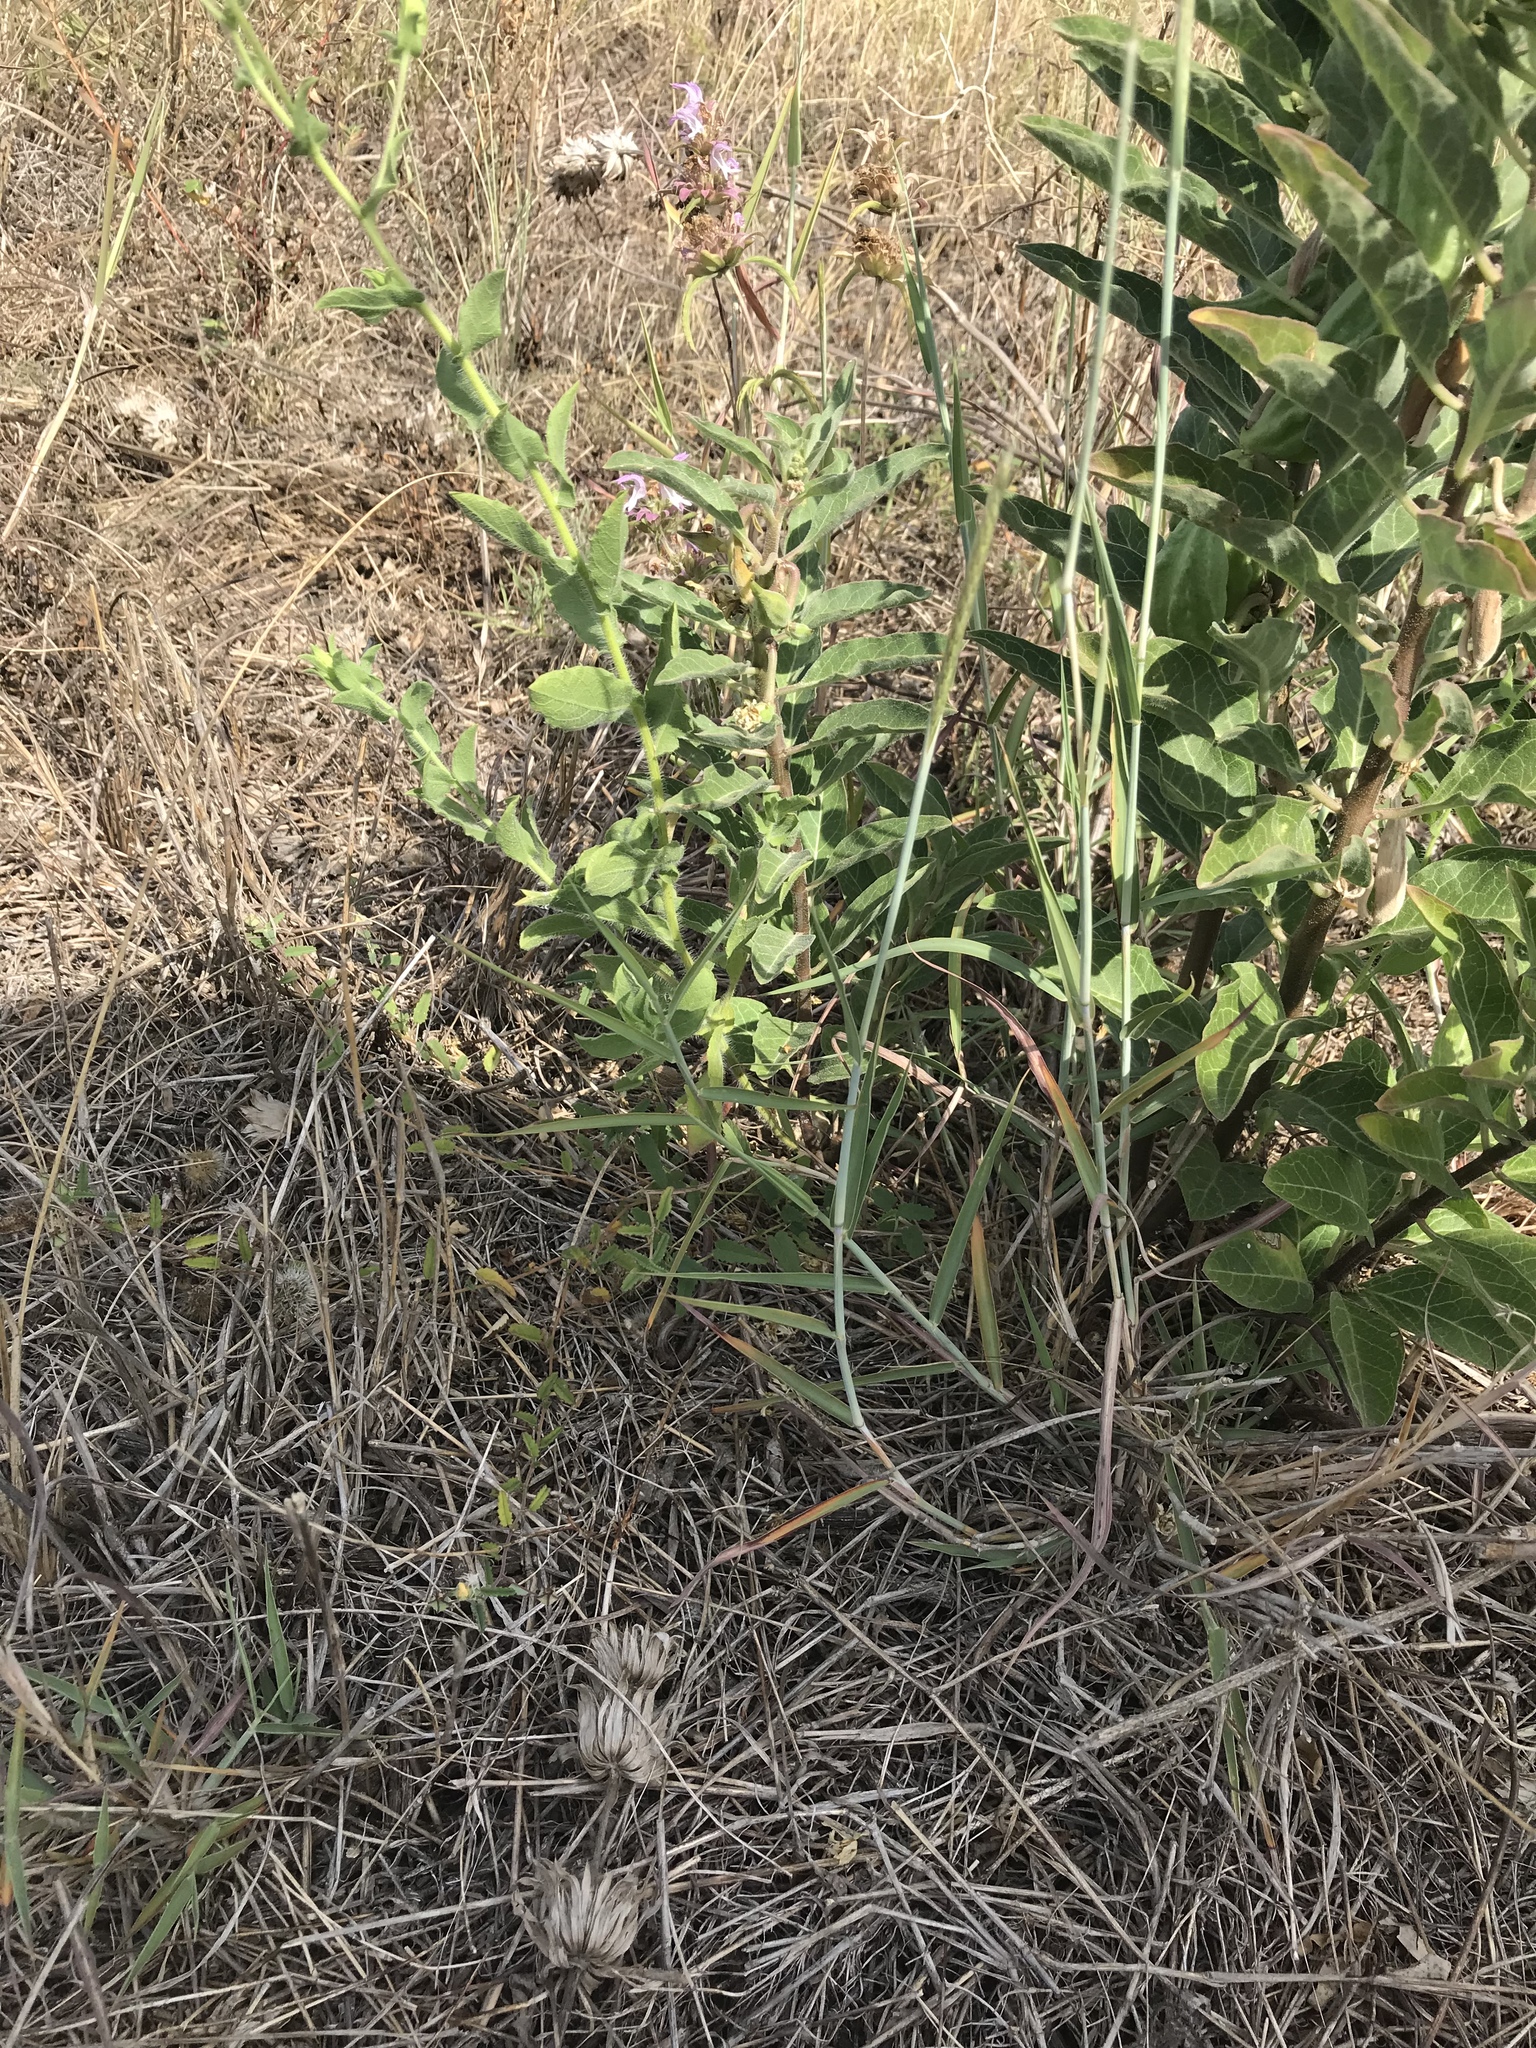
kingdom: Plantae
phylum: Tracheophyta
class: Magnoliopsida
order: Gentianales
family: Apocynaceae
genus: Asclepias
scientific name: Asclepias oenotheroides
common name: Zizotes milkweed
